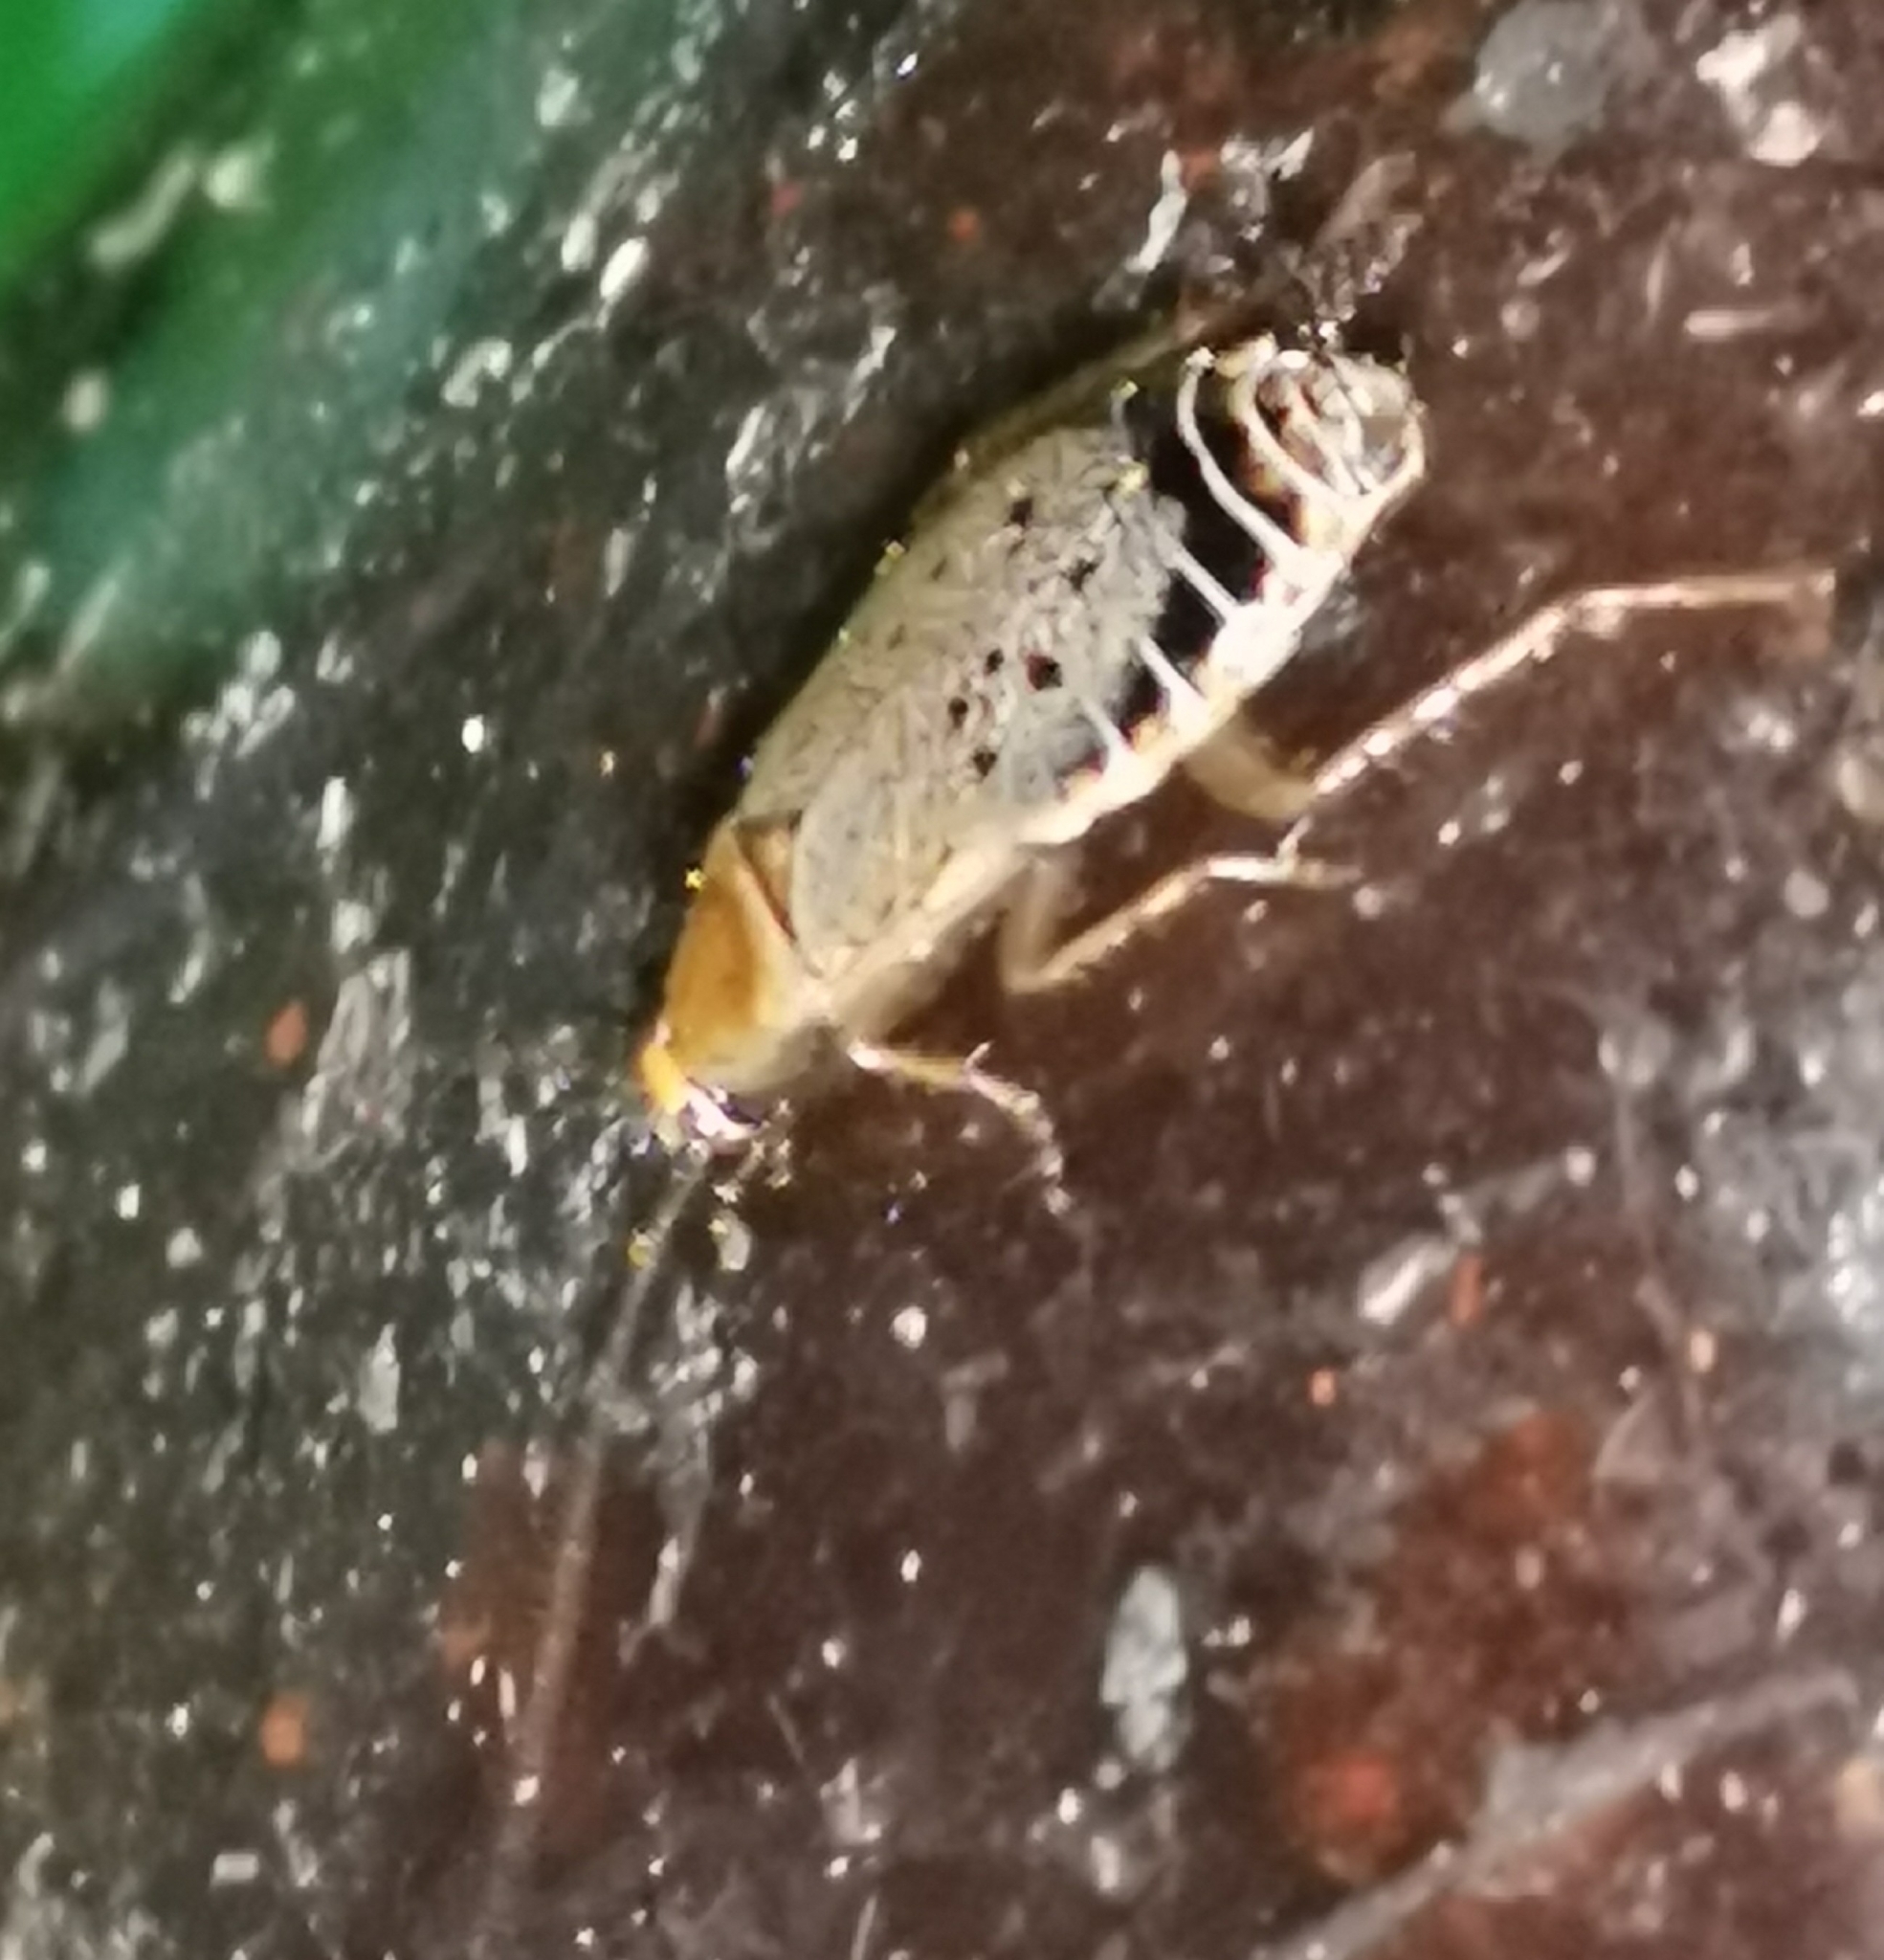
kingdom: Animalia
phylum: Arthropoda
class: Insecta
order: Blattodea
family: Ectobiidae
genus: Ectobius
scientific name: Ectobius lapponicus
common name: Dusky cockroach
